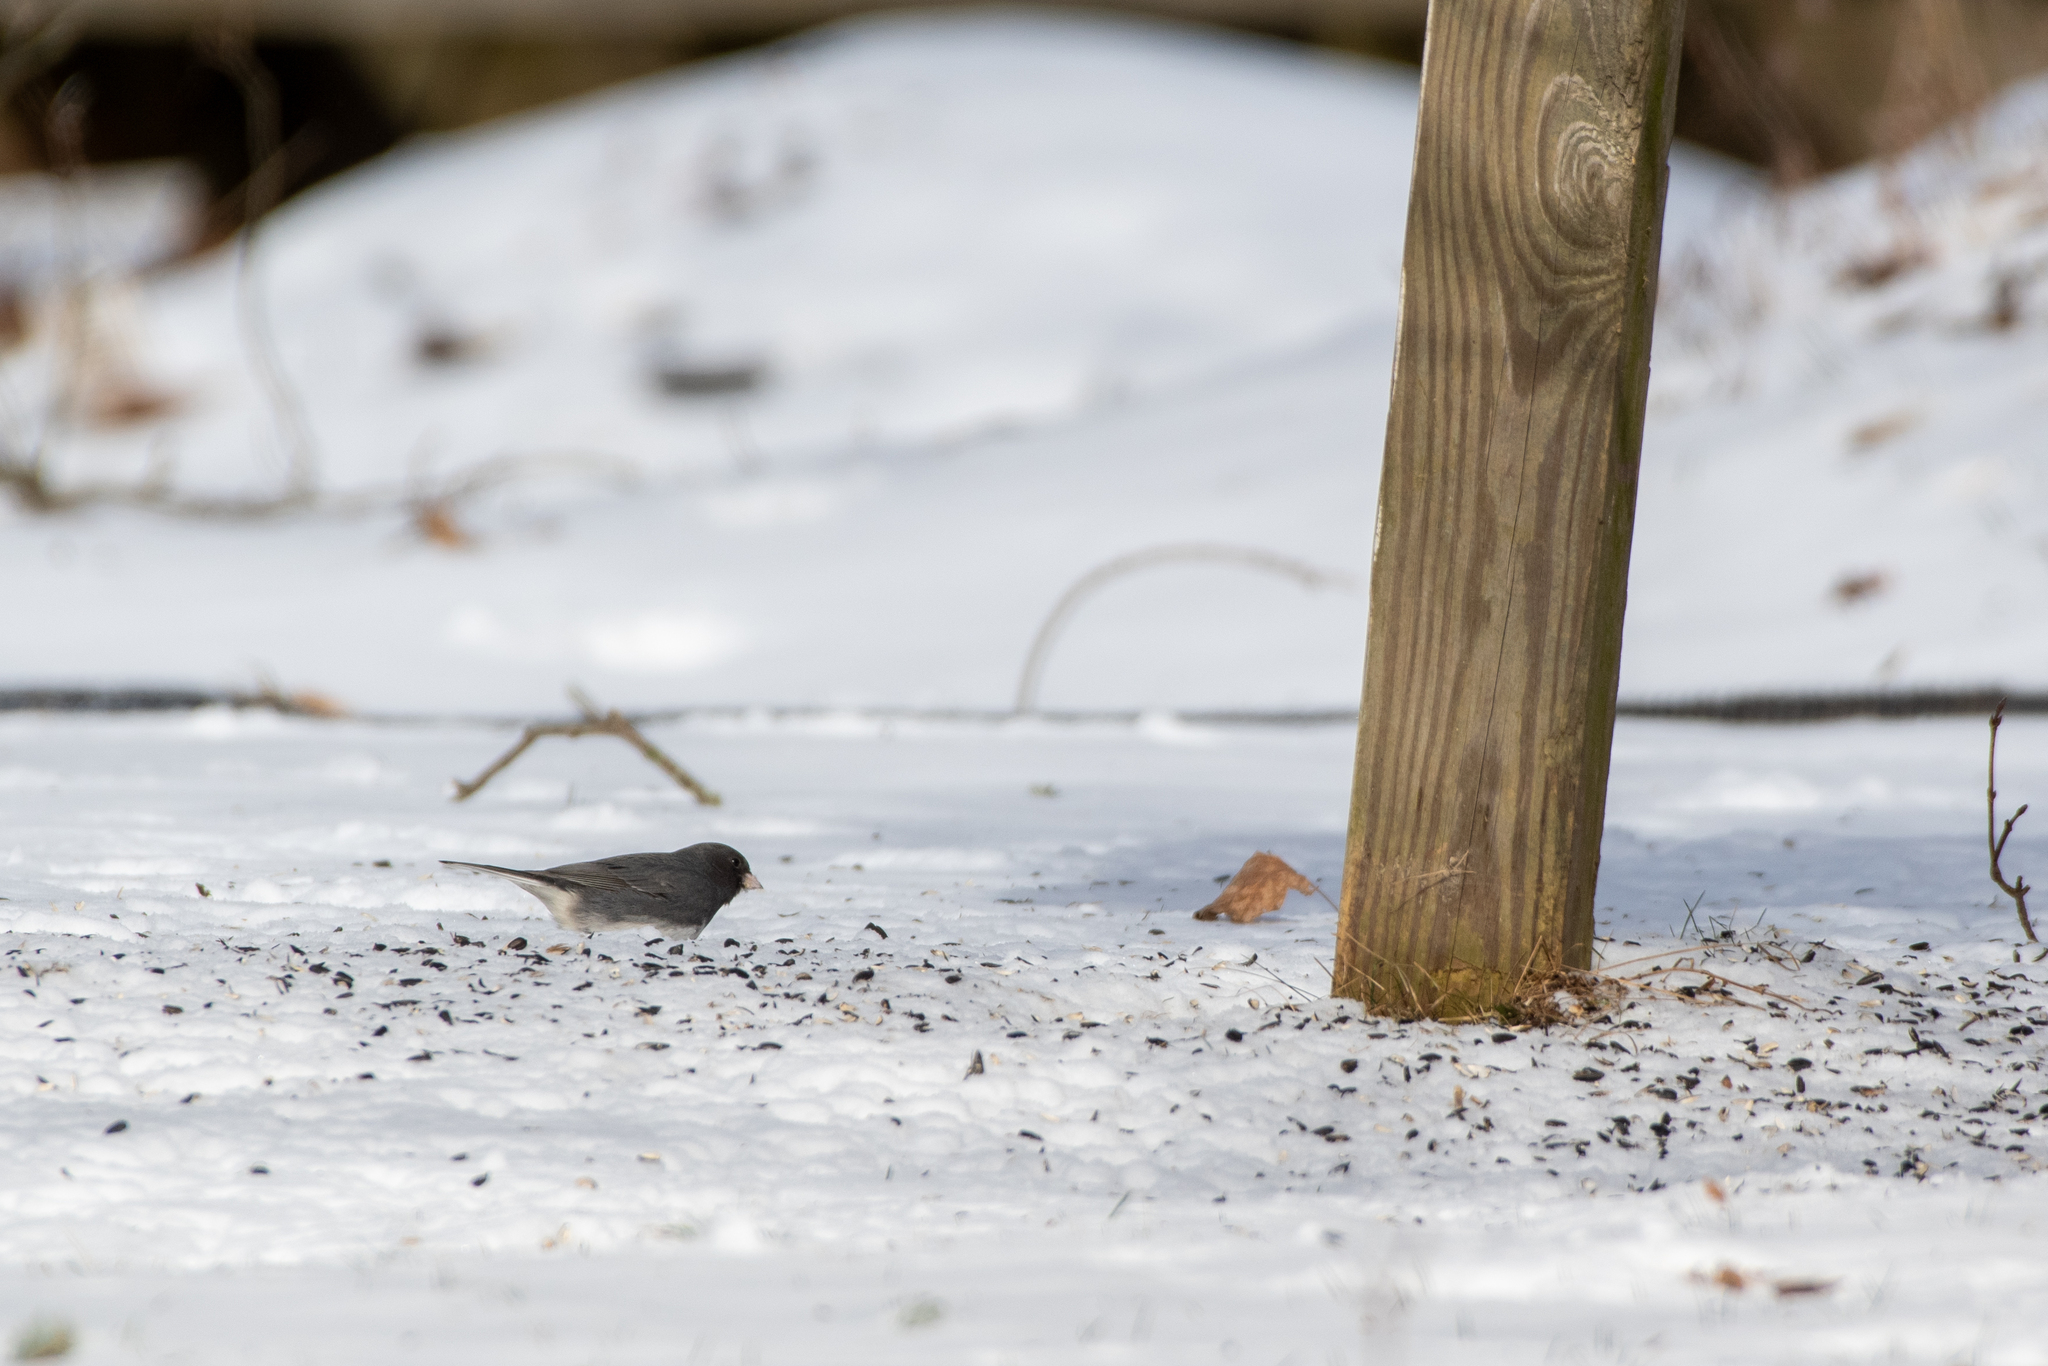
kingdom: Animalia
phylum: Chordata
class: Aves
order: Passeriformes
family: Passerellidae
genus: Junco
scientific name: Junco hyemalis
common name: Dark-eyed junco
